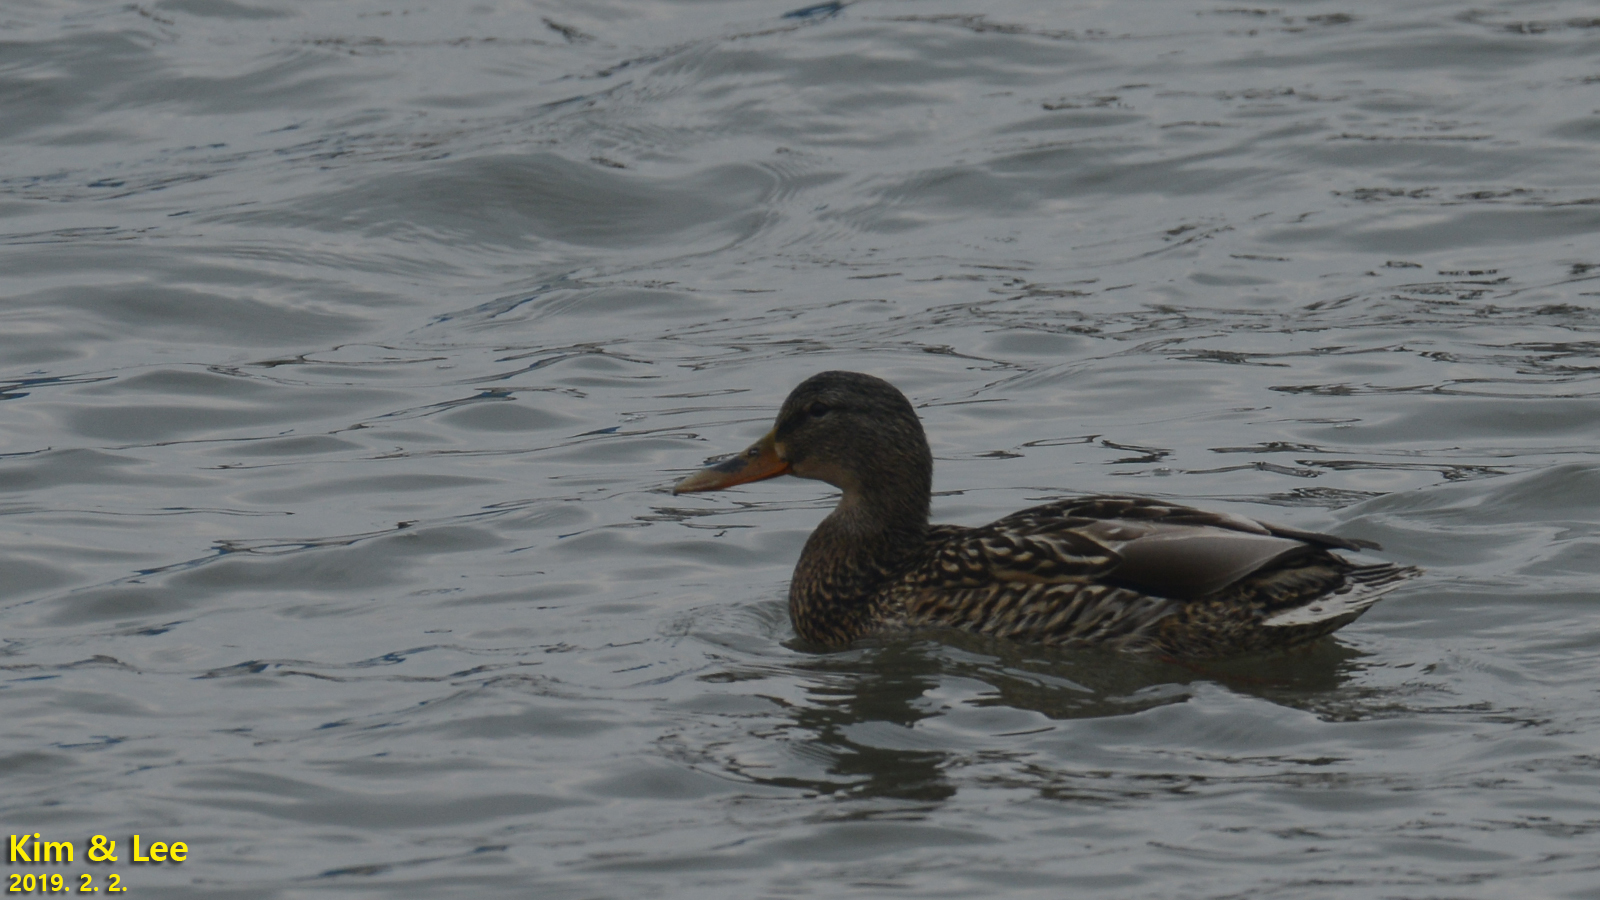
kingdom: Animalia
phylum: Chordata
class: Aves
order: Anseriformes
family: Anatidae
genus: Anas
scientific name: Anas platyrhynchos
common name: Mallard
